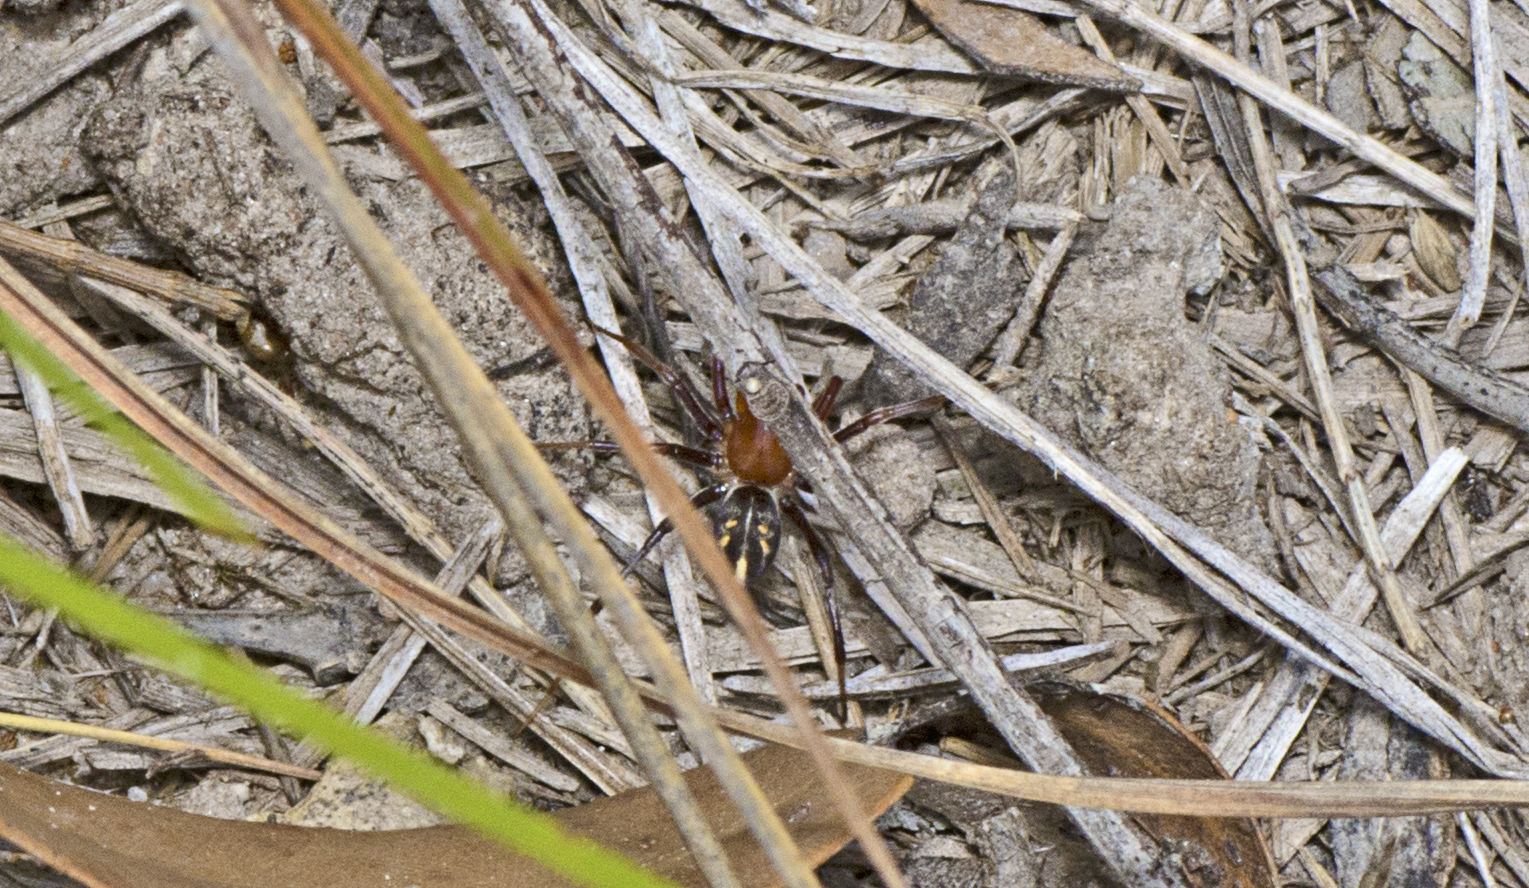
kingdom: Animalia
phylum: Arthropoda
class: Arachnida
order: Araneae
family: Zodariidae
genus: Habronestes
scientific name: Habronestes bradleyi
